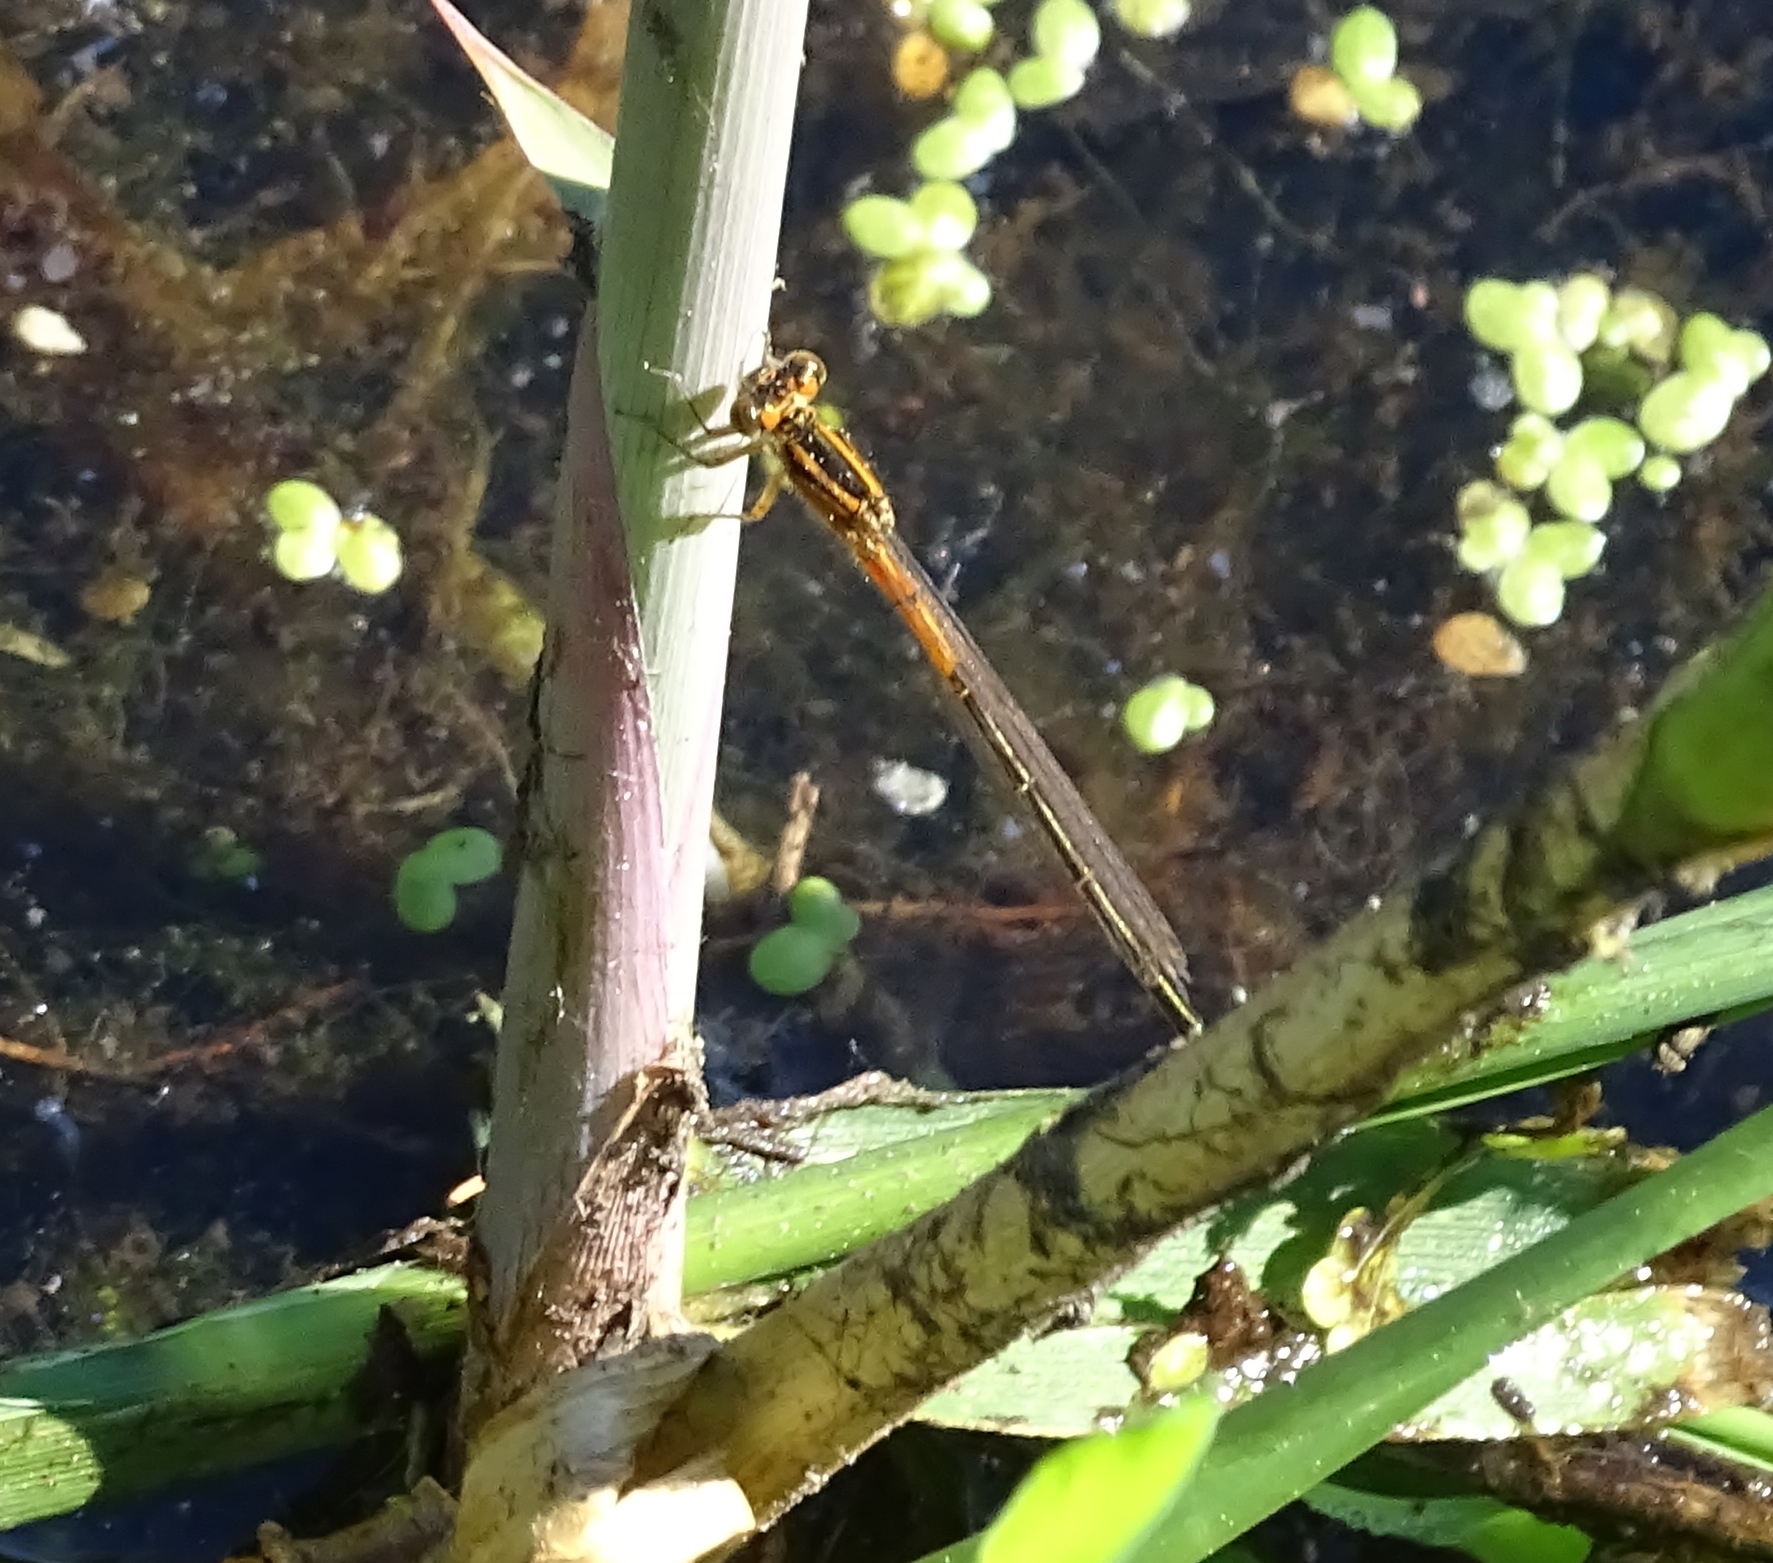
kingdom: Animalia
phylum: Arthropoda
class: Insecta
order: Odonata
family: Coenagrionidae
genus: Ischnura
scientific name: Ischnura verticalis
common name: Eastern forktail
